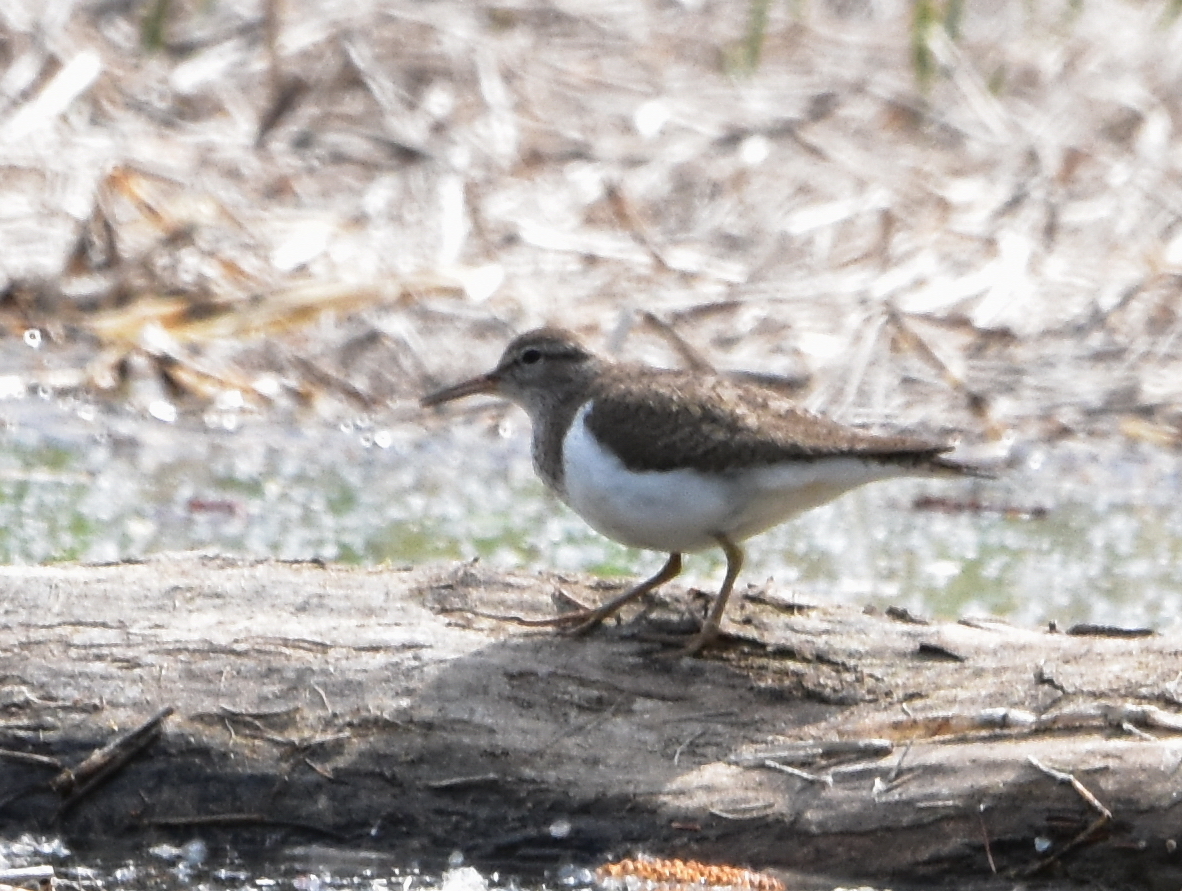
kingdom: Animalia
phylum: Chordata
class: Aves
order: Charadriiformes
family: Scolopacidae
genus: Actitis
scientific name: Actitis hypoleucos
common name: Common sandpiper
